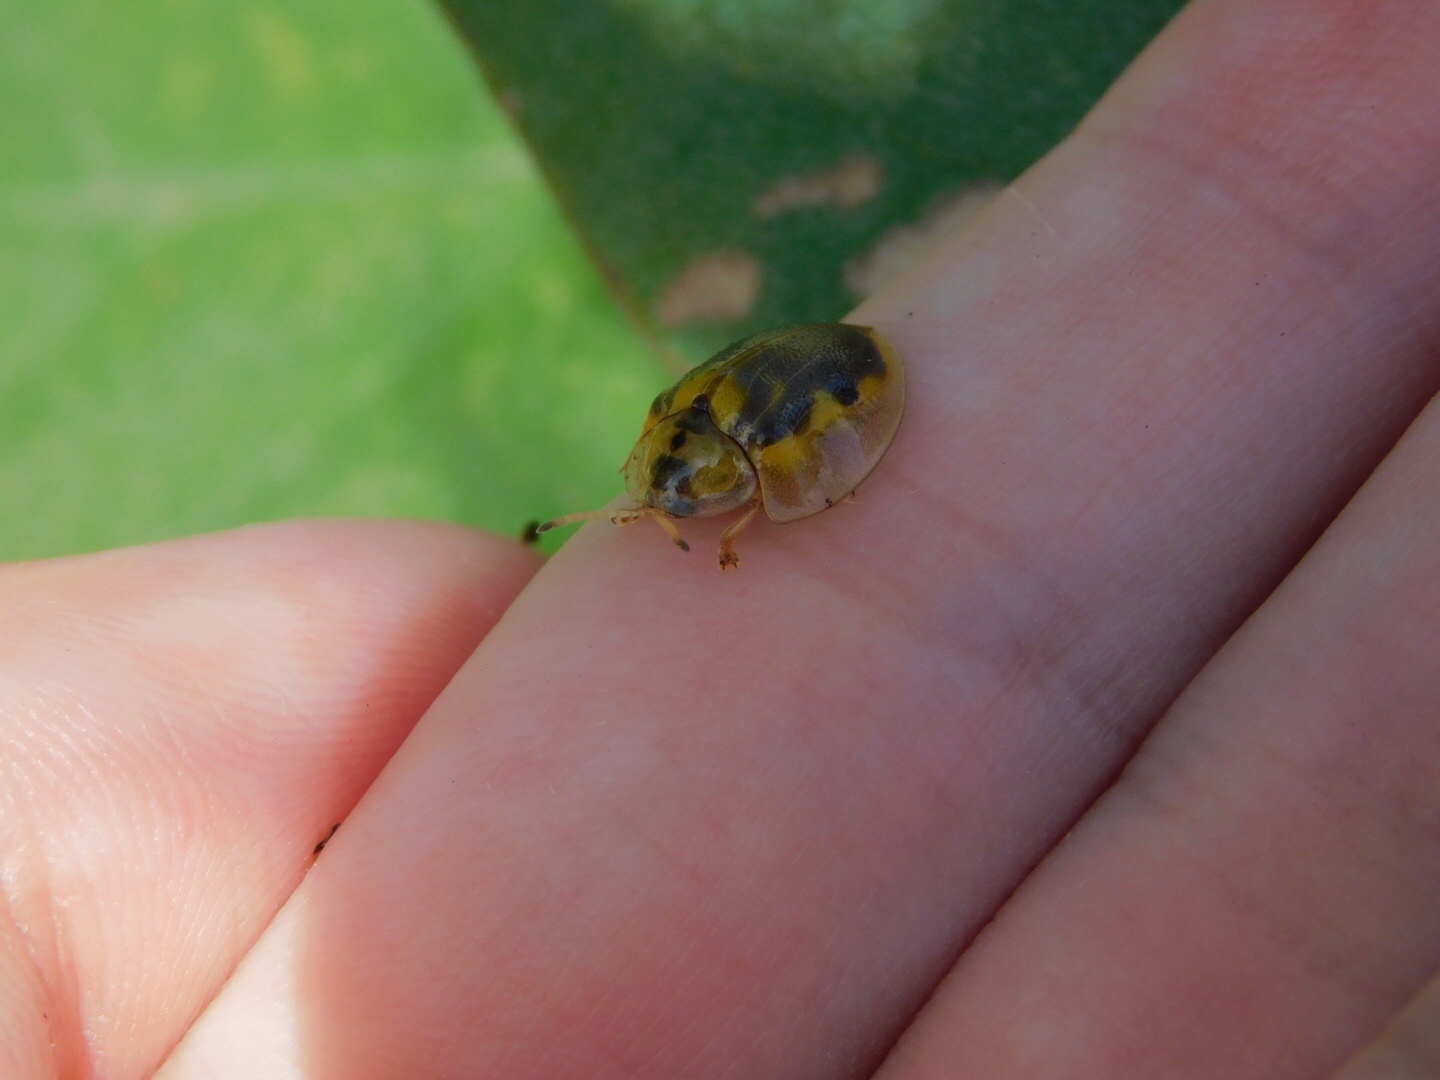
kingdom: Animalia
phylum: Arthropoda
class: Insecta
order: Coleoptera
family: Chrysomelidae
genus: Eurypepla
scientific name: Eurypepla calochroma
